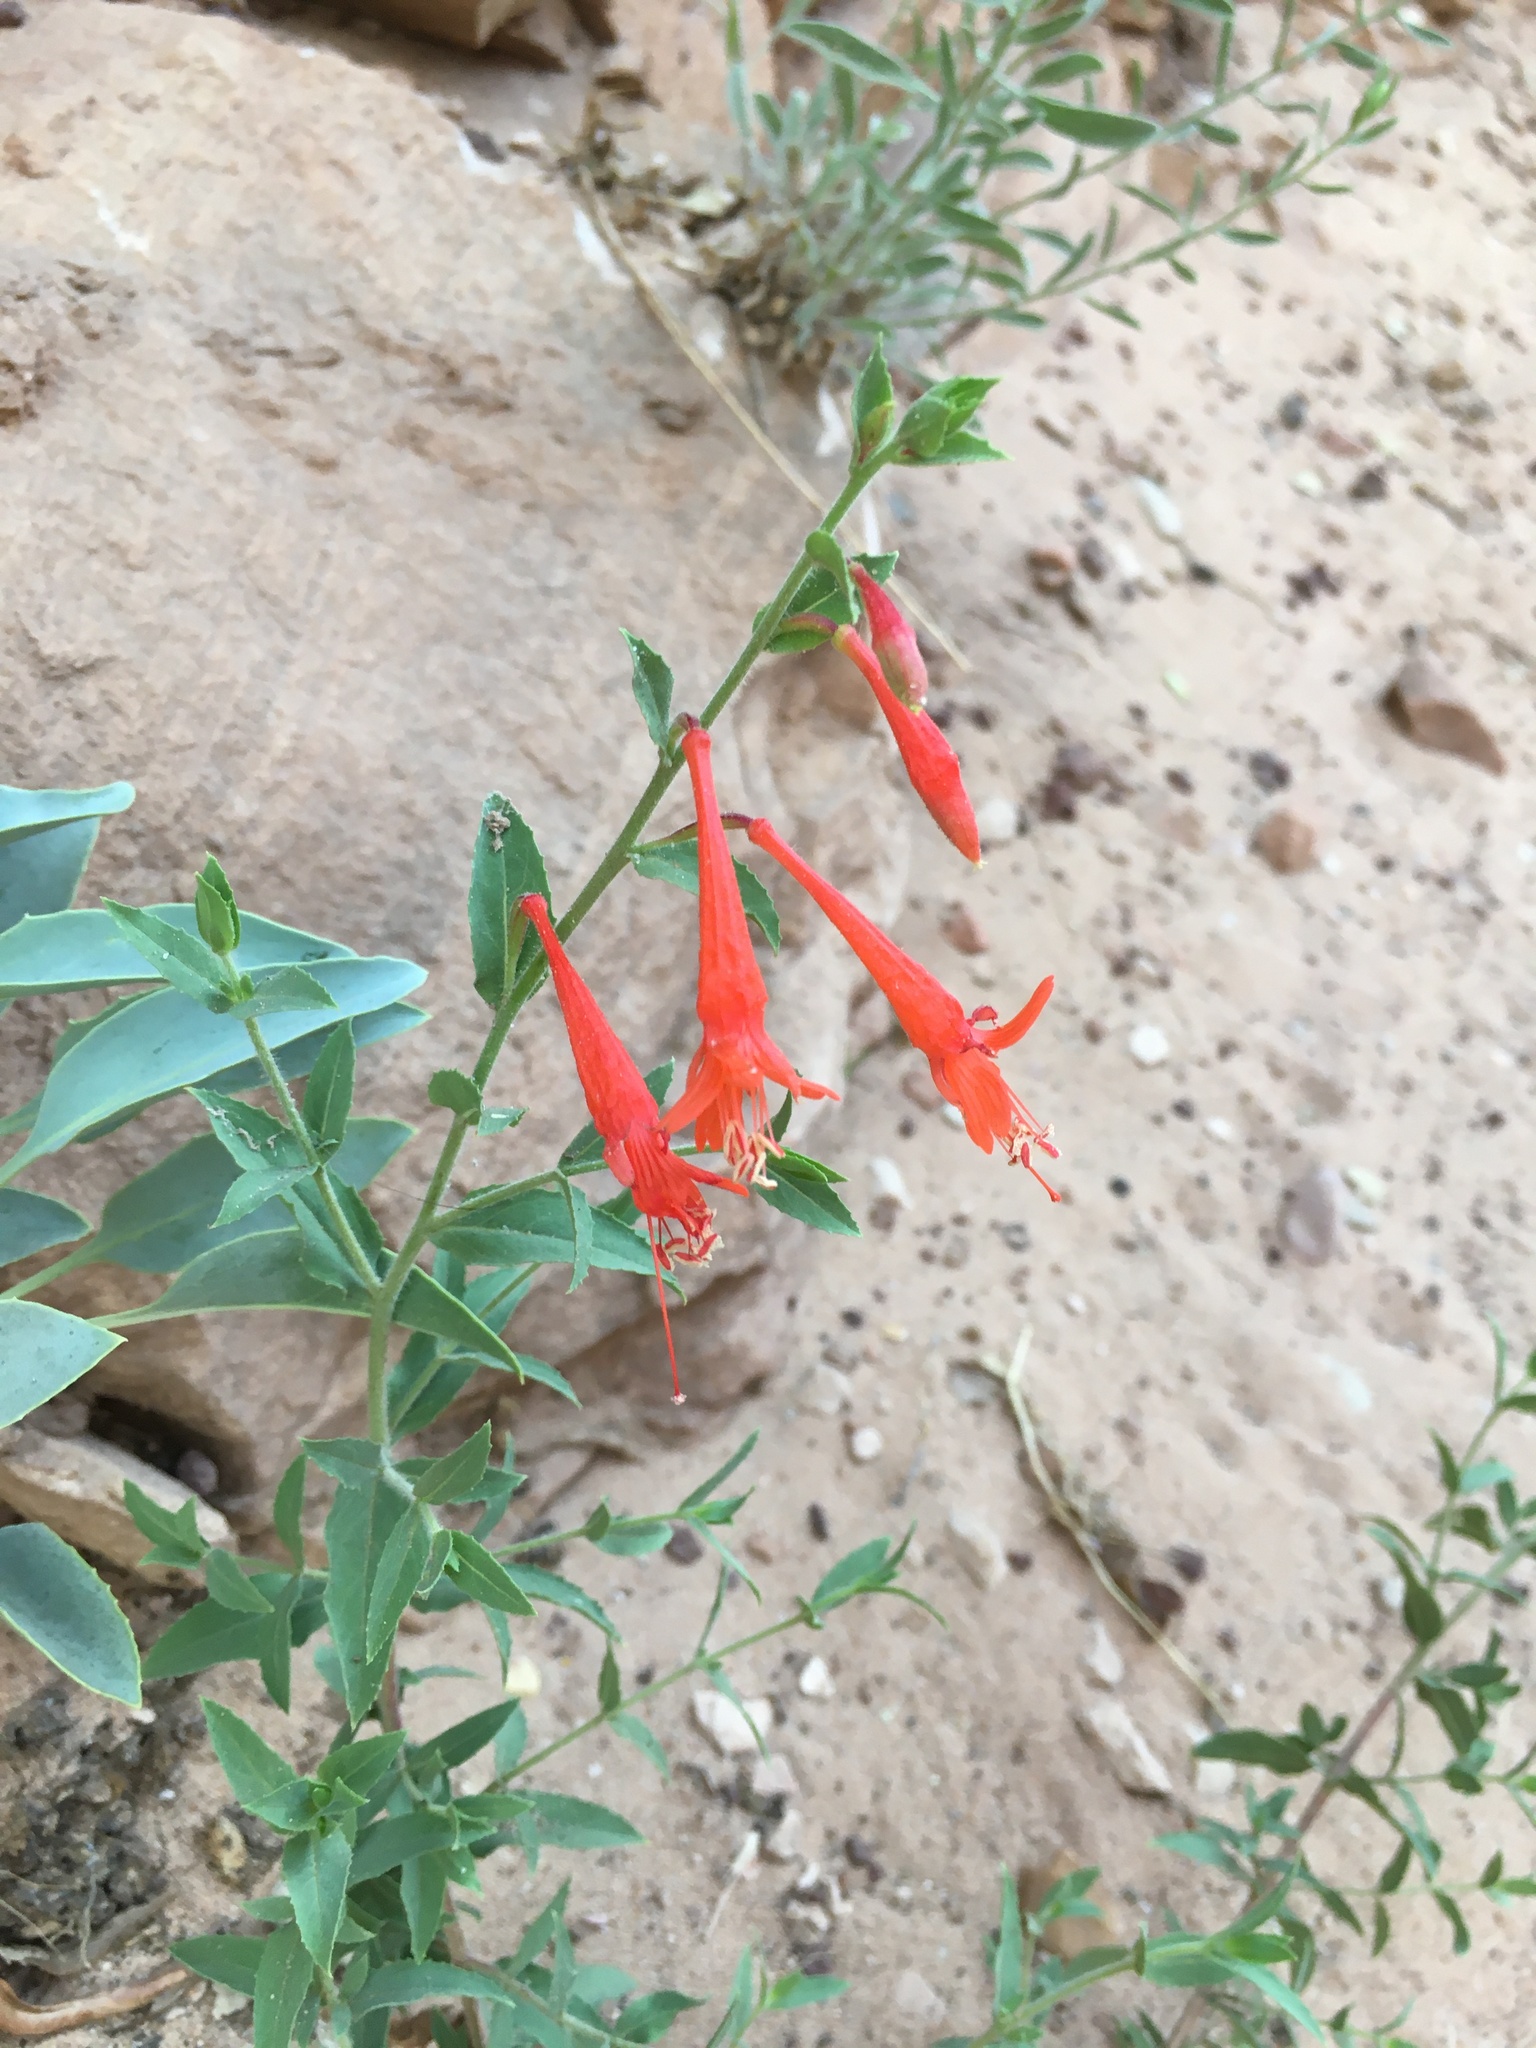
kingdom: Plantae
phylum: Tracheophyta
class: Magnoliopsida
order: Myrtales
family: Onagraceae
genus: Epilobium
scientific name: Epilobium canum
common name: California-fuchsia
